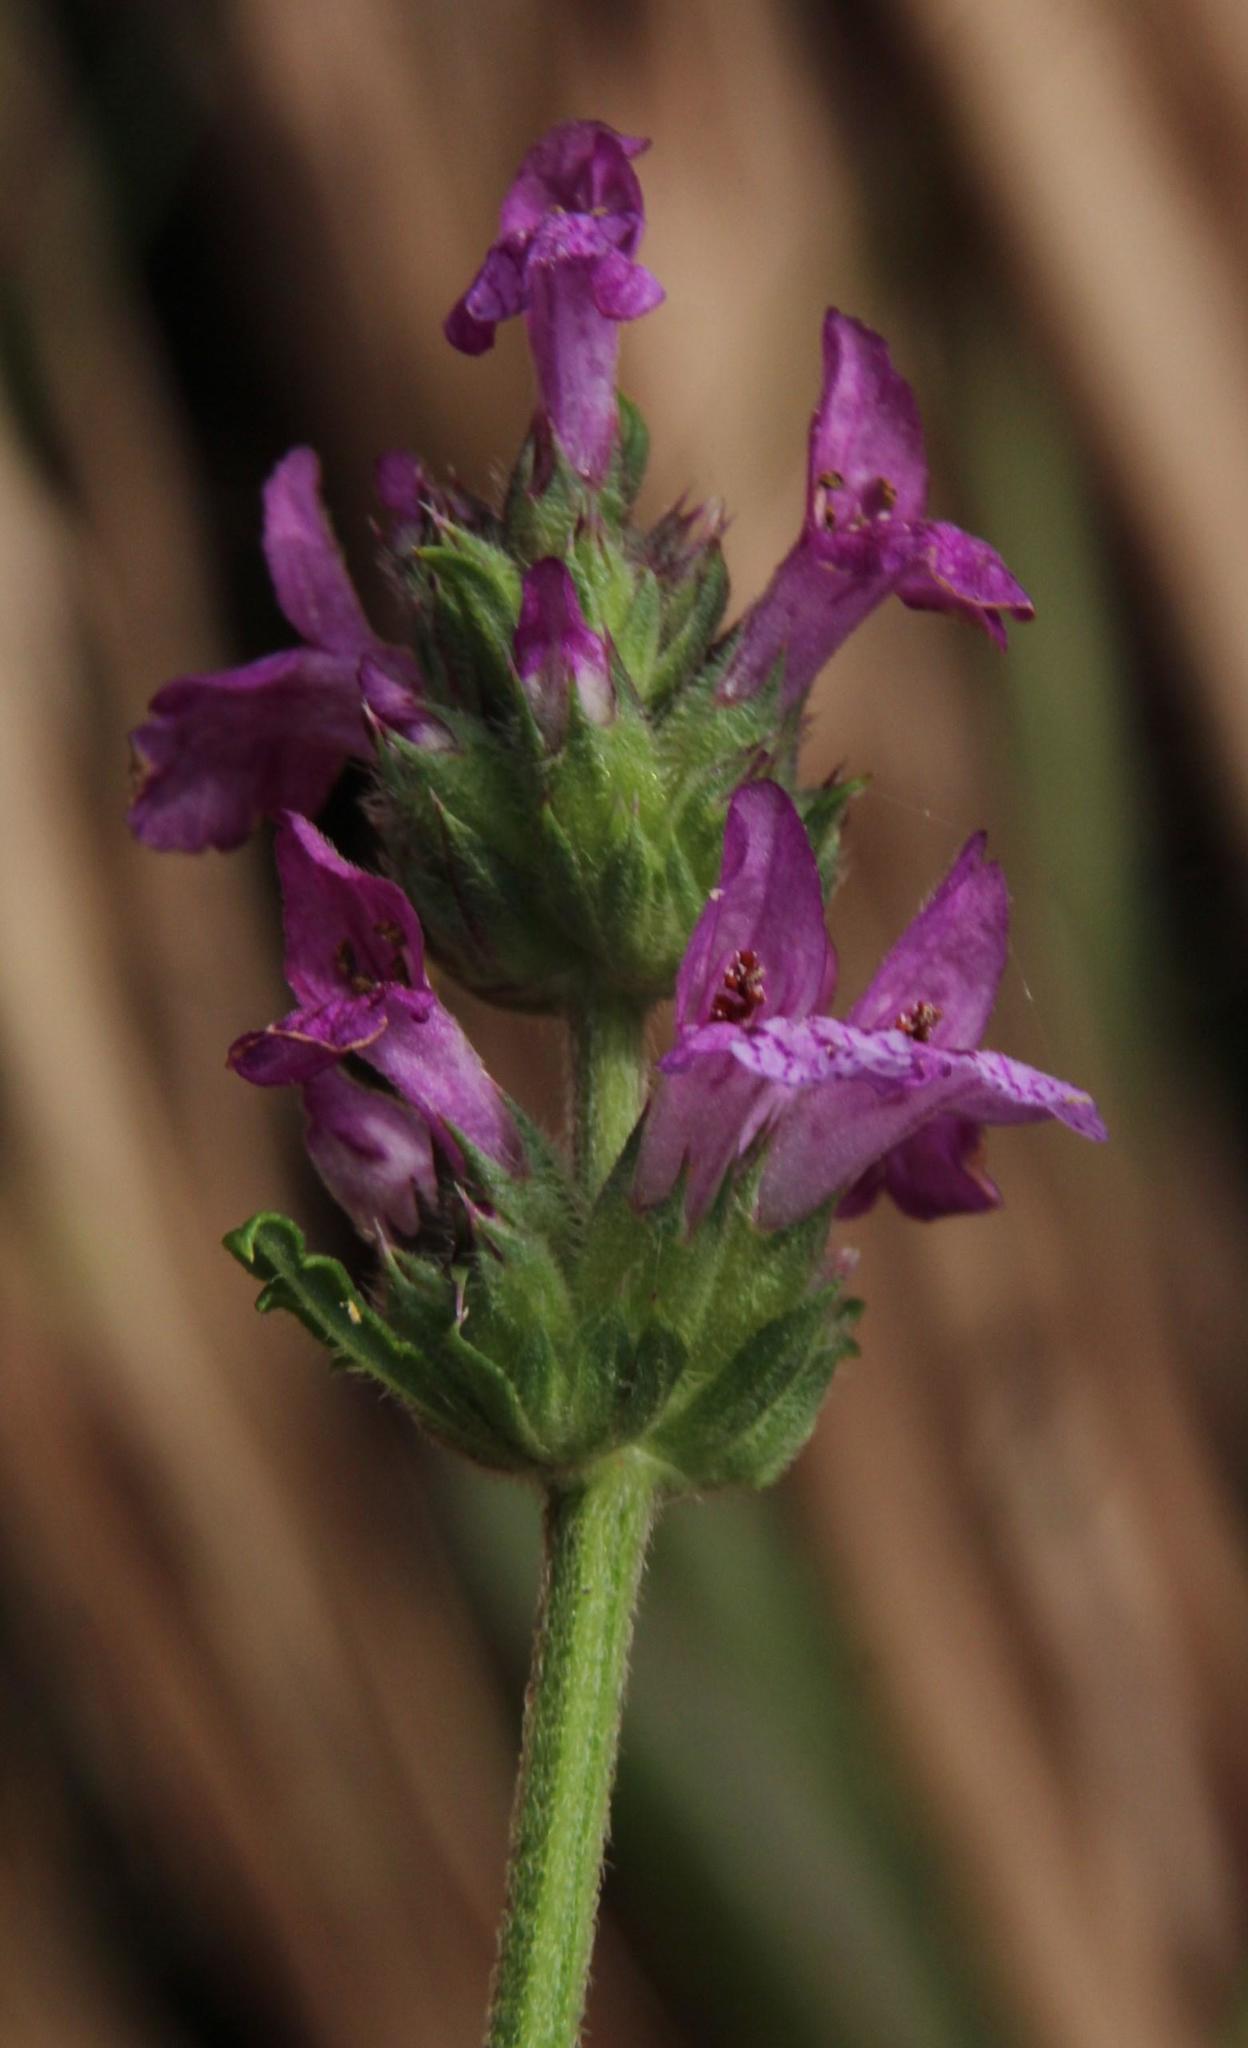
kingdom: Plantae
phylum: Tracheophyta
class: Magnoliopsida
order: Lamiales
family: Lamiaceae
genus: Betonica
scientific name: Betonica officinalis
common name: Bishop's-wort
